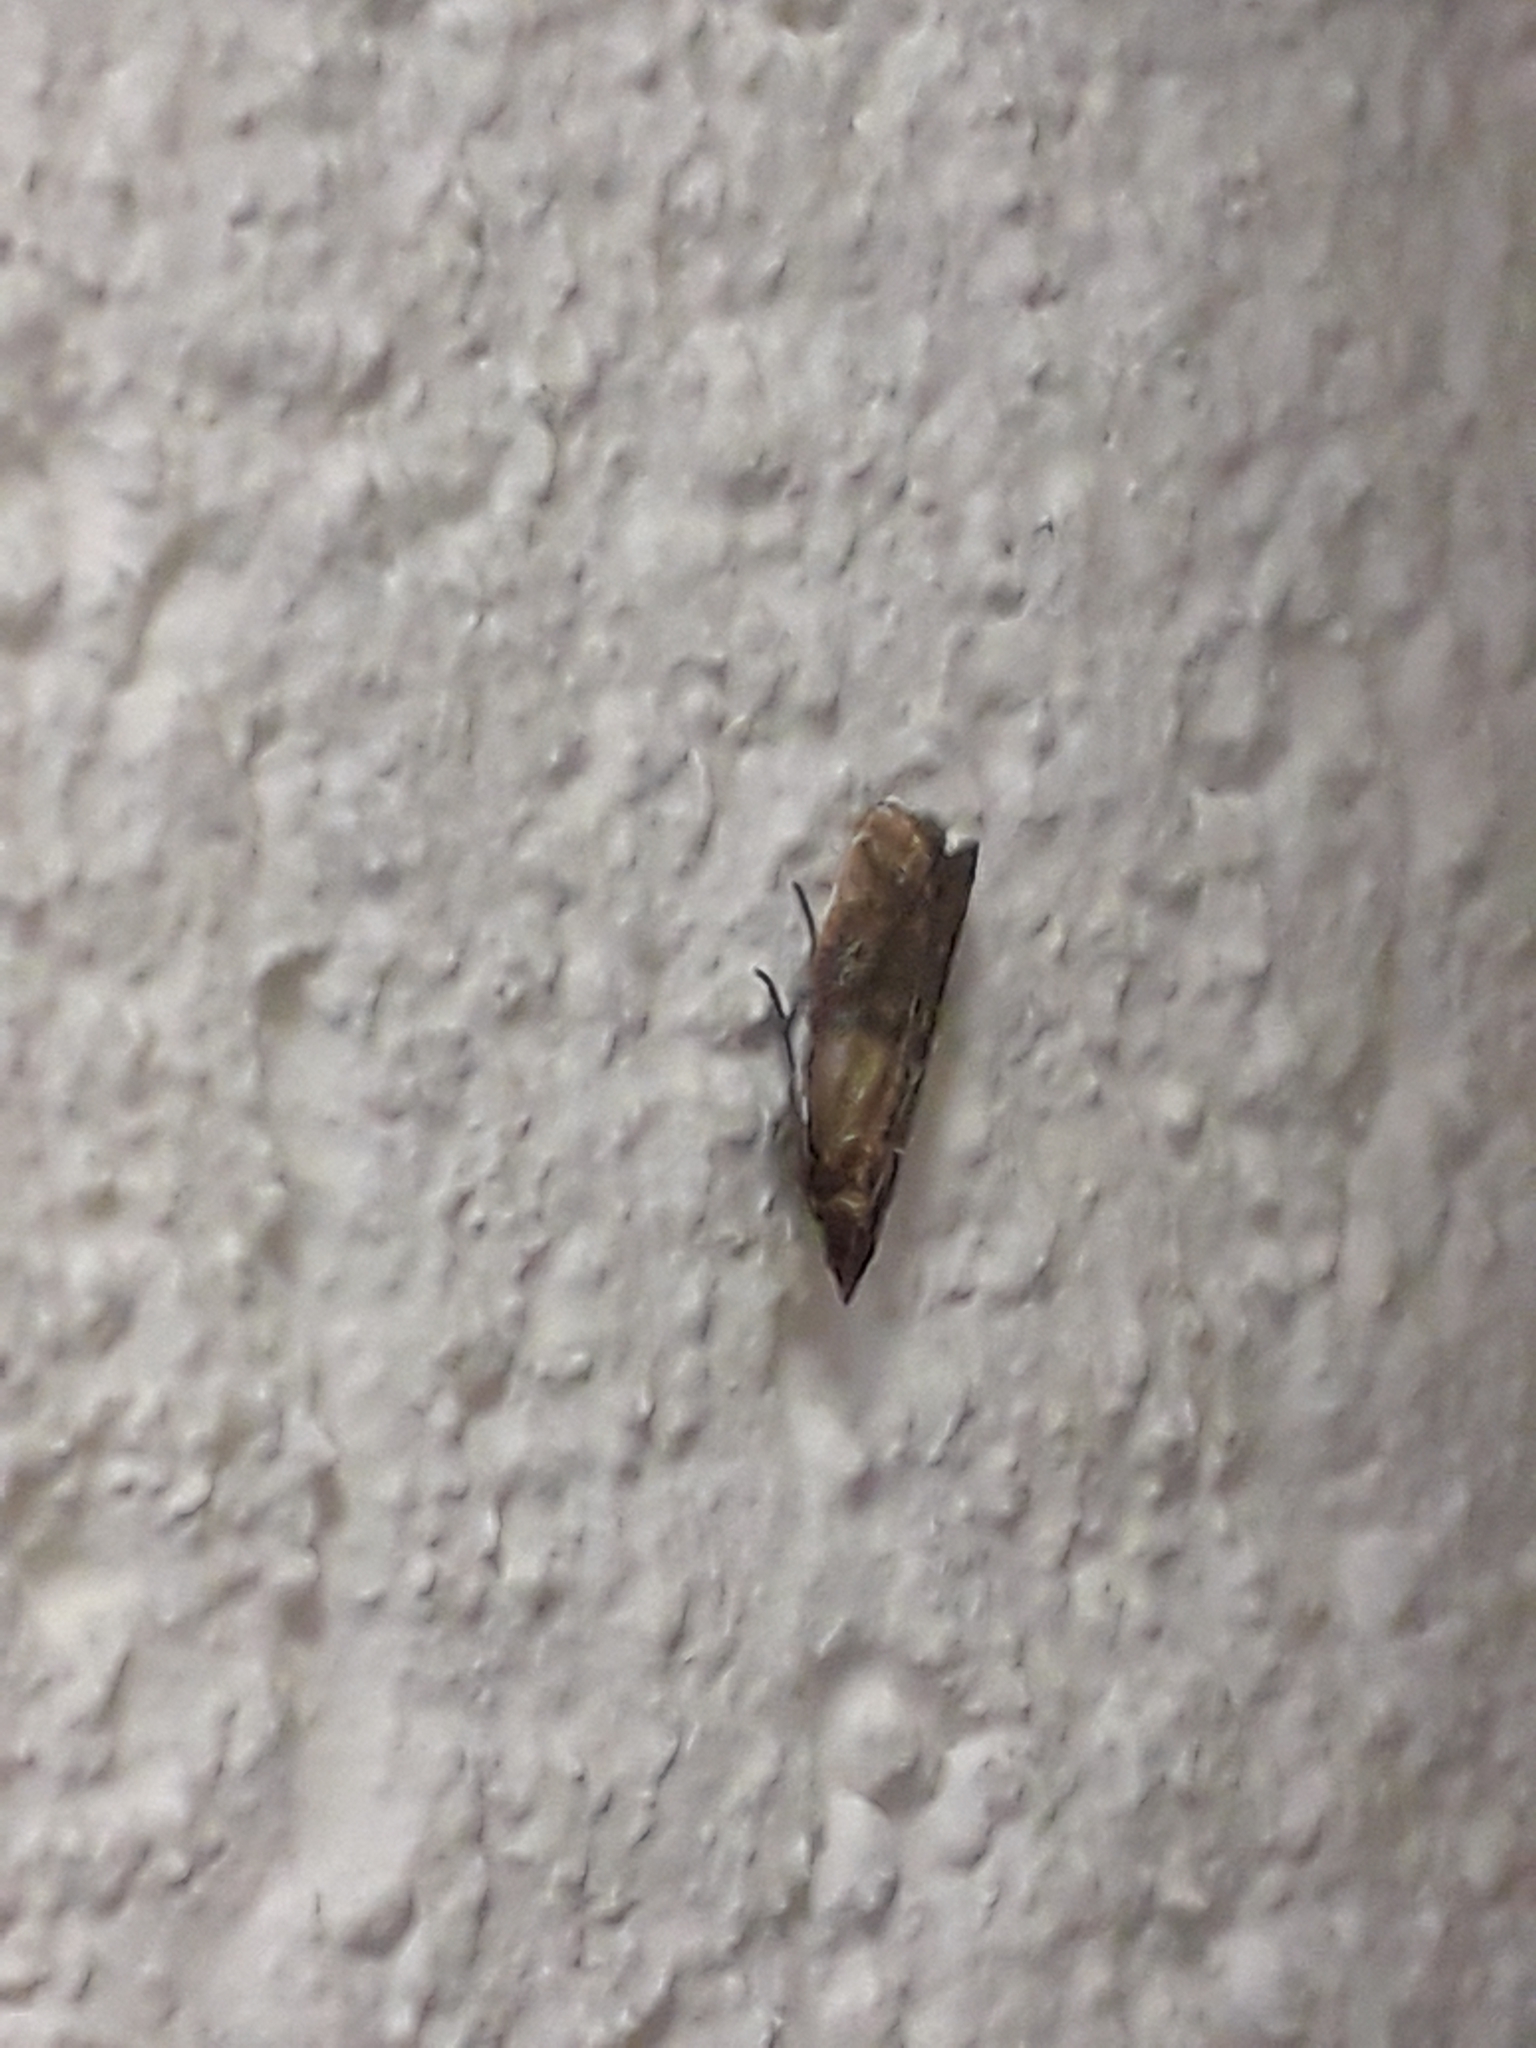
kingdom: Animalia
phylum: Arthropoda
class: Insecta
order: Lepidoptera
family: Pyralidae
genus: Plodia
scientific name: Plodia interpunctella
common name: Indian meal moth
